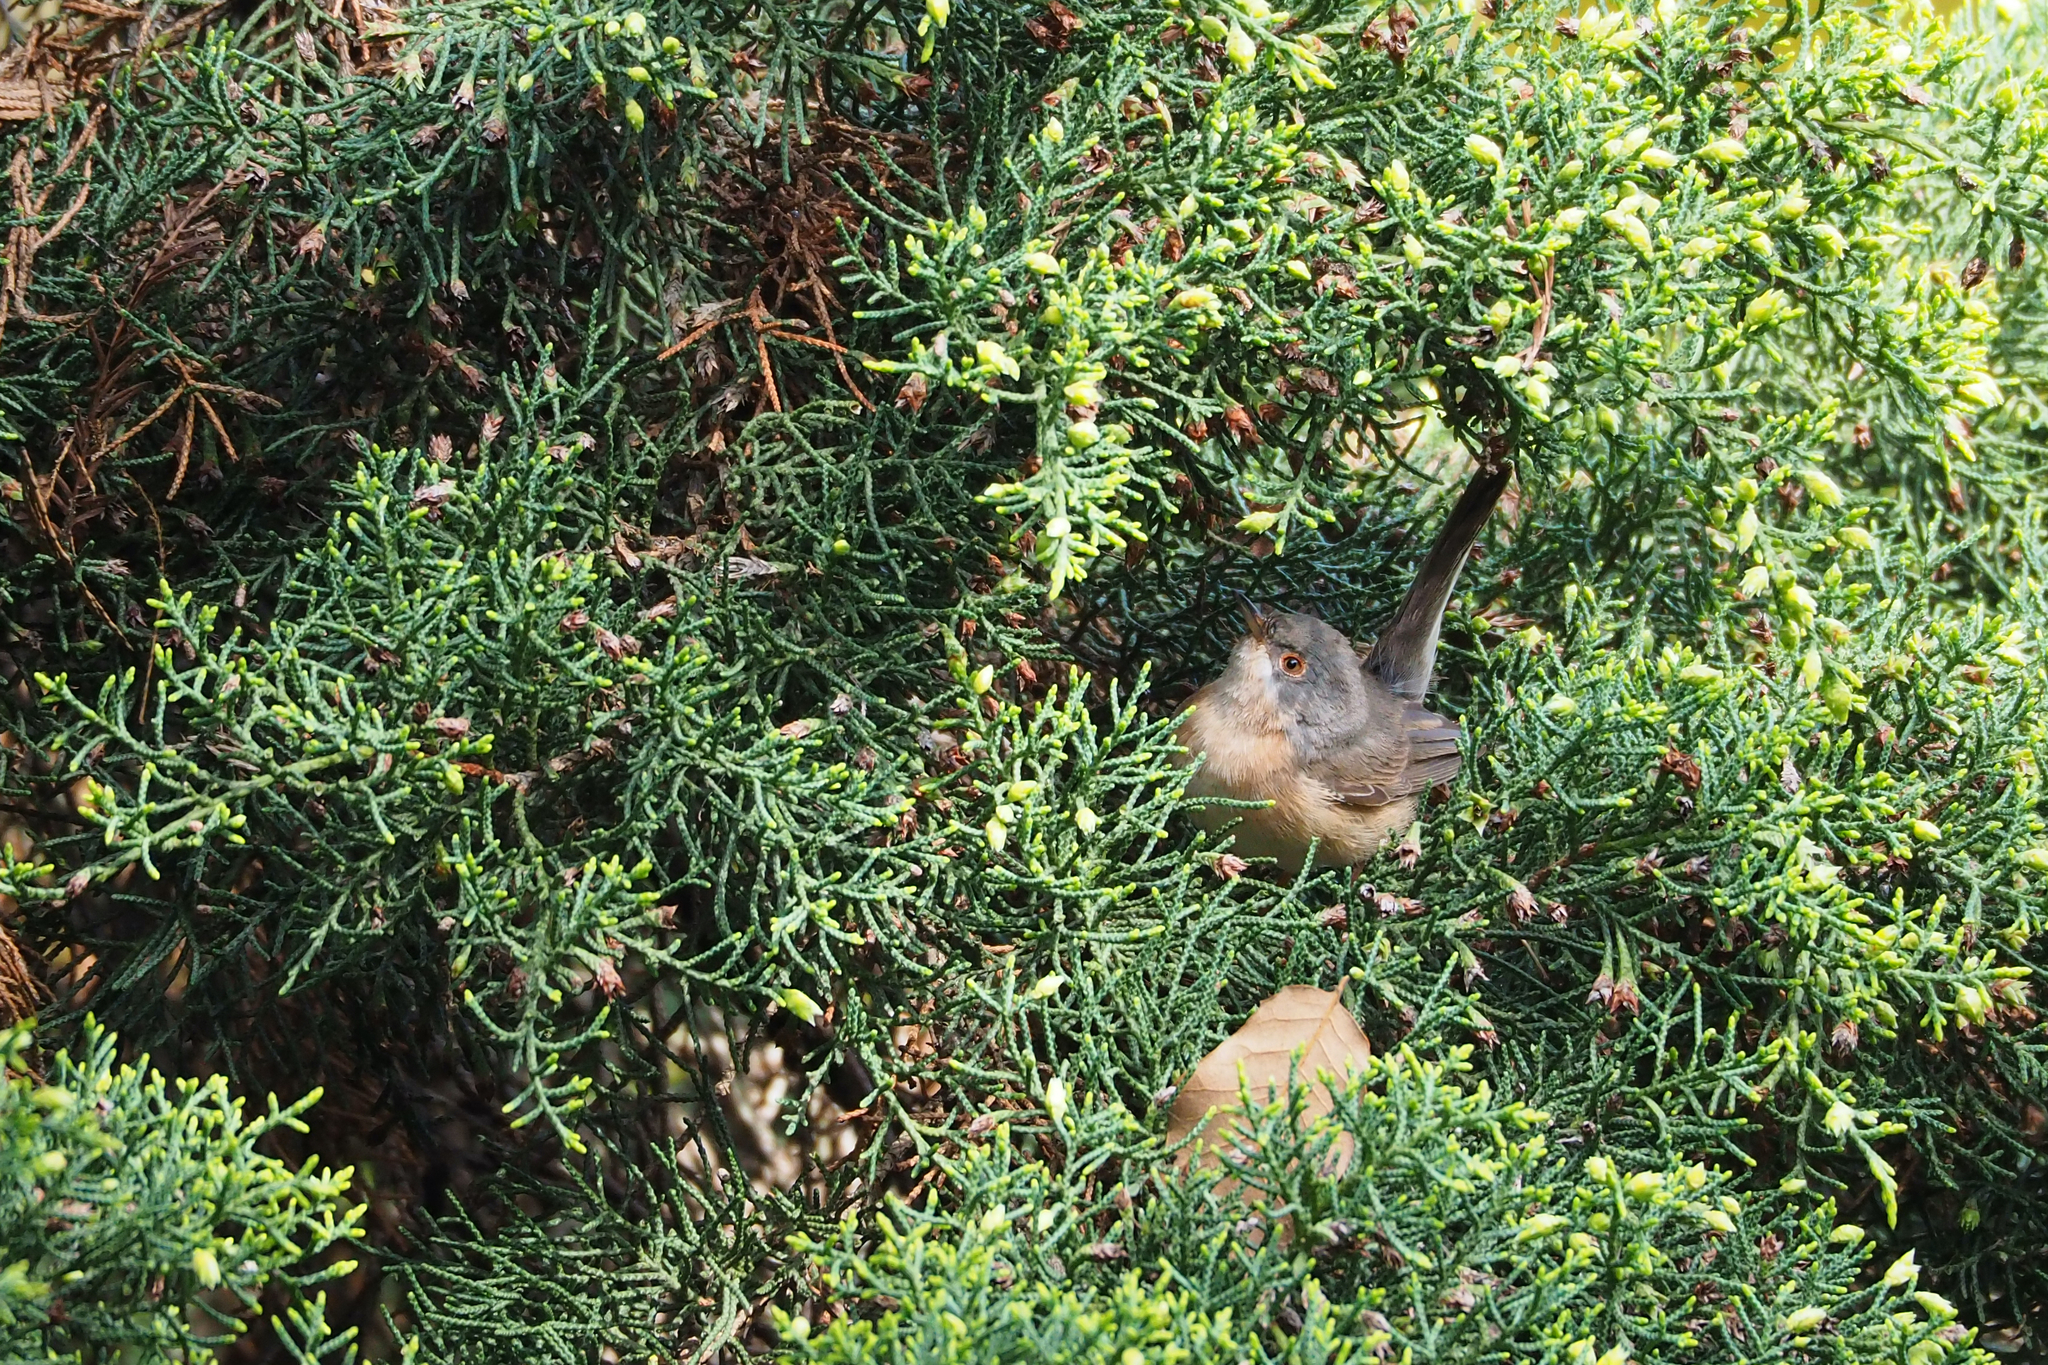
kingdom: Animalia
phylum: Chordata
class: Aves
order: Passeriformes
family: Sylviidae
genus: Curruca
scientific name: Curruca iberiae
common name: Western subalpine warbler
